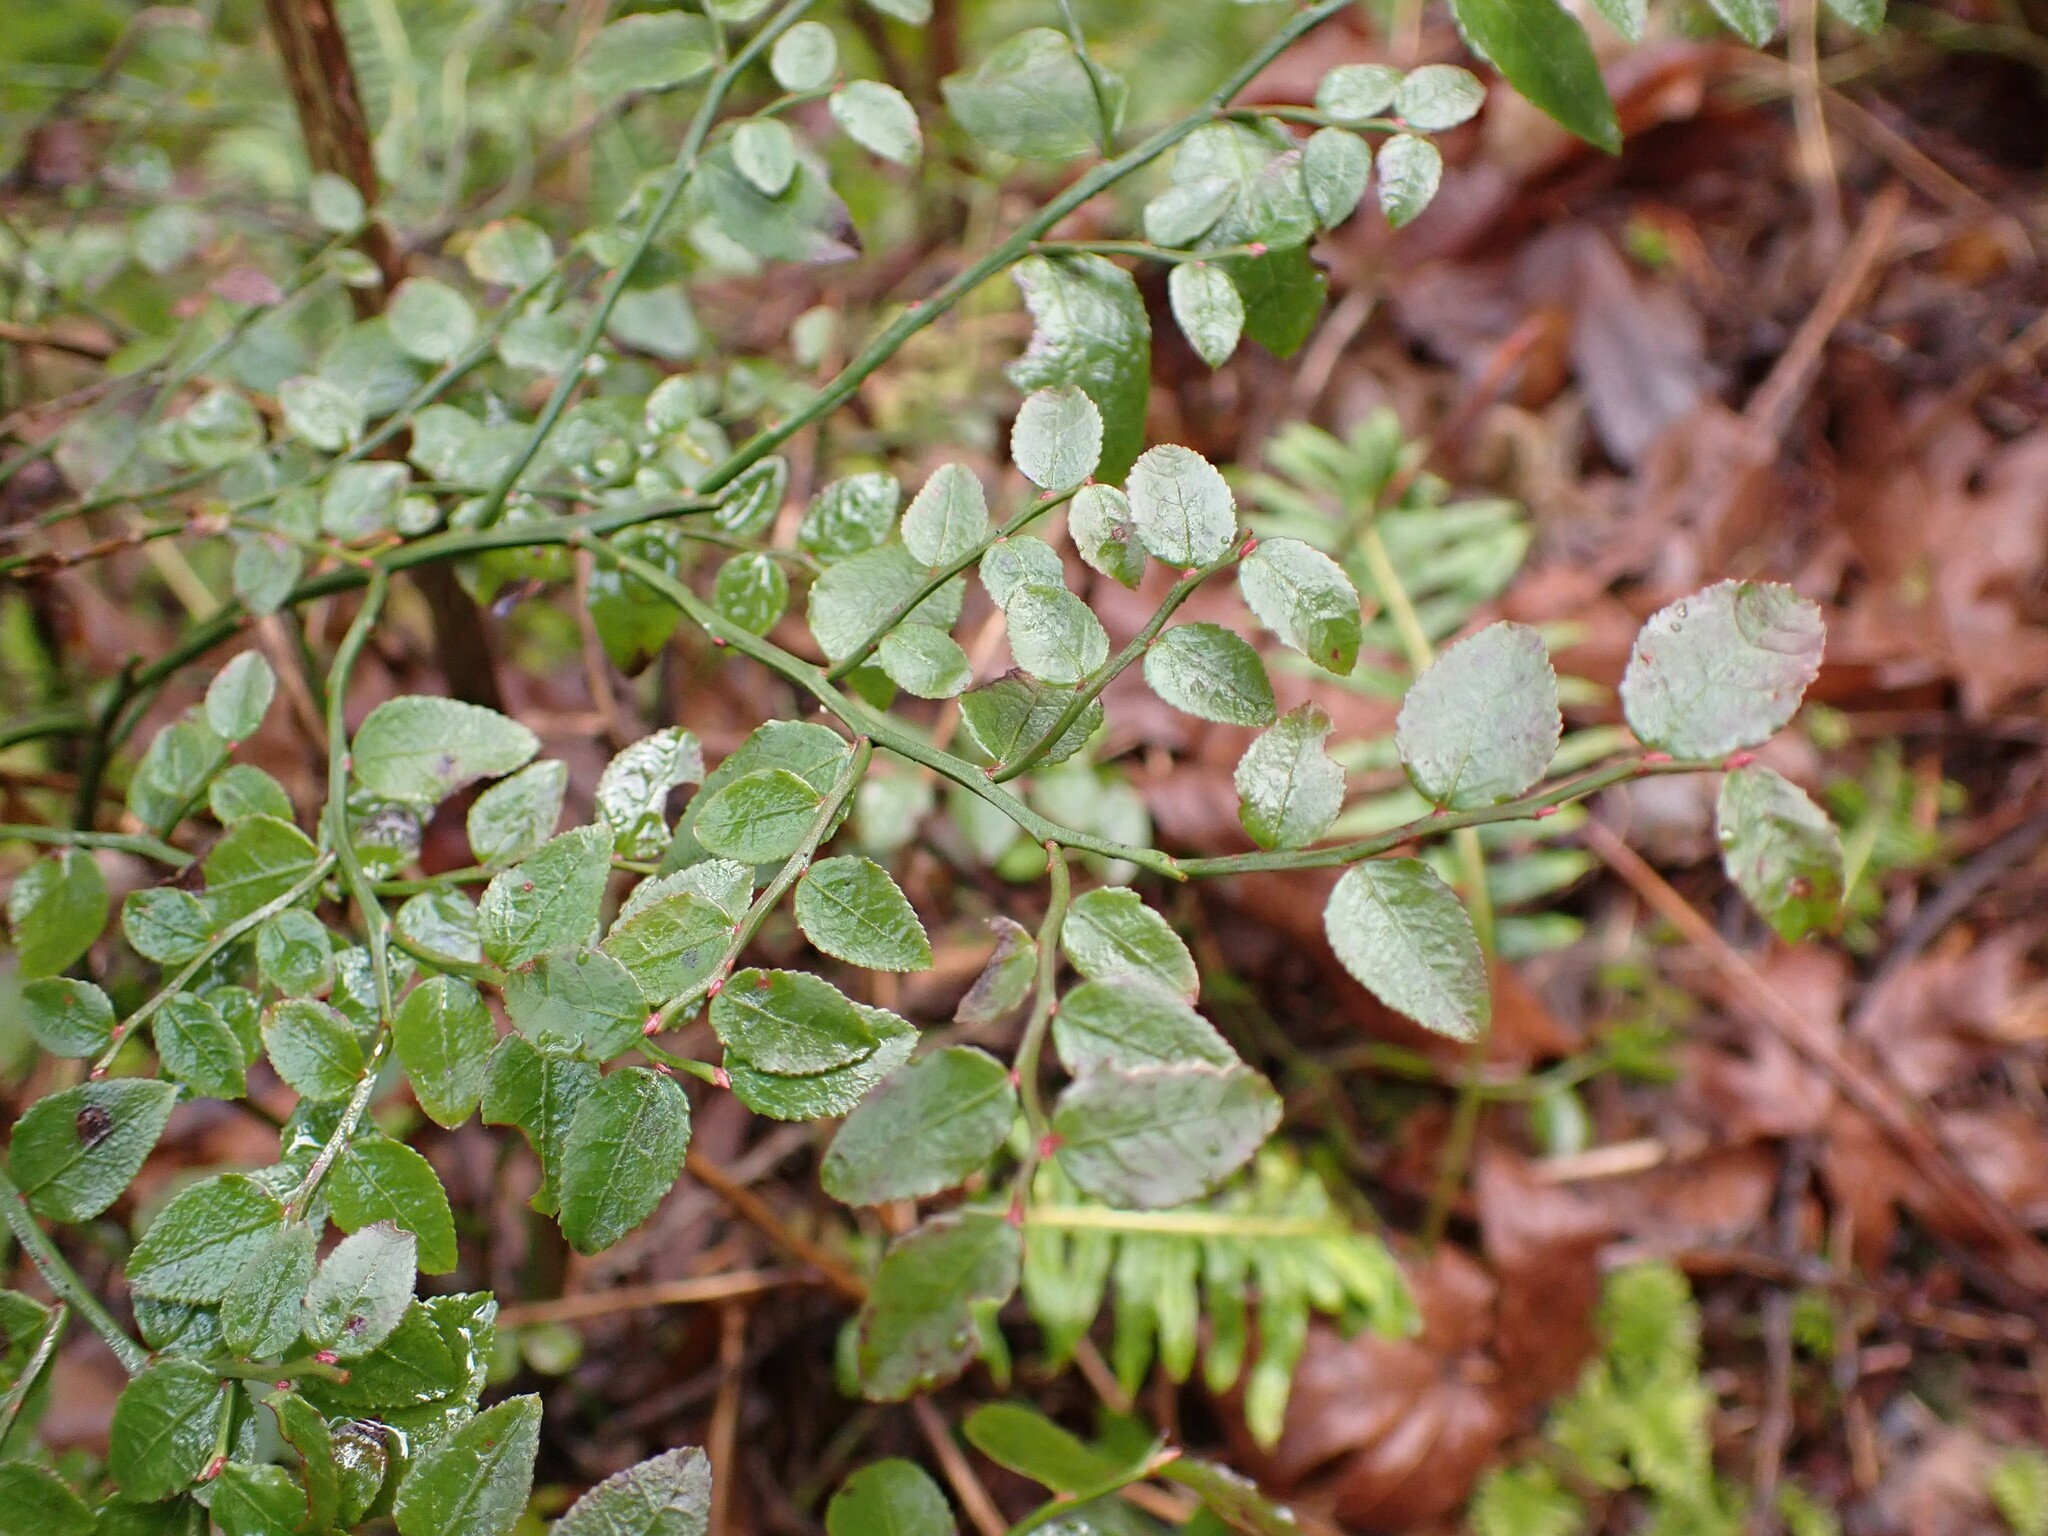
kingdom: Plantae
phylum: Tracheophyta
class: Magnoliopsida
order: Ericales
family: Ericaceae
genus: Vaccinium
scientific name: Vaccinium parvifolium
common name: Red-huckleberry
